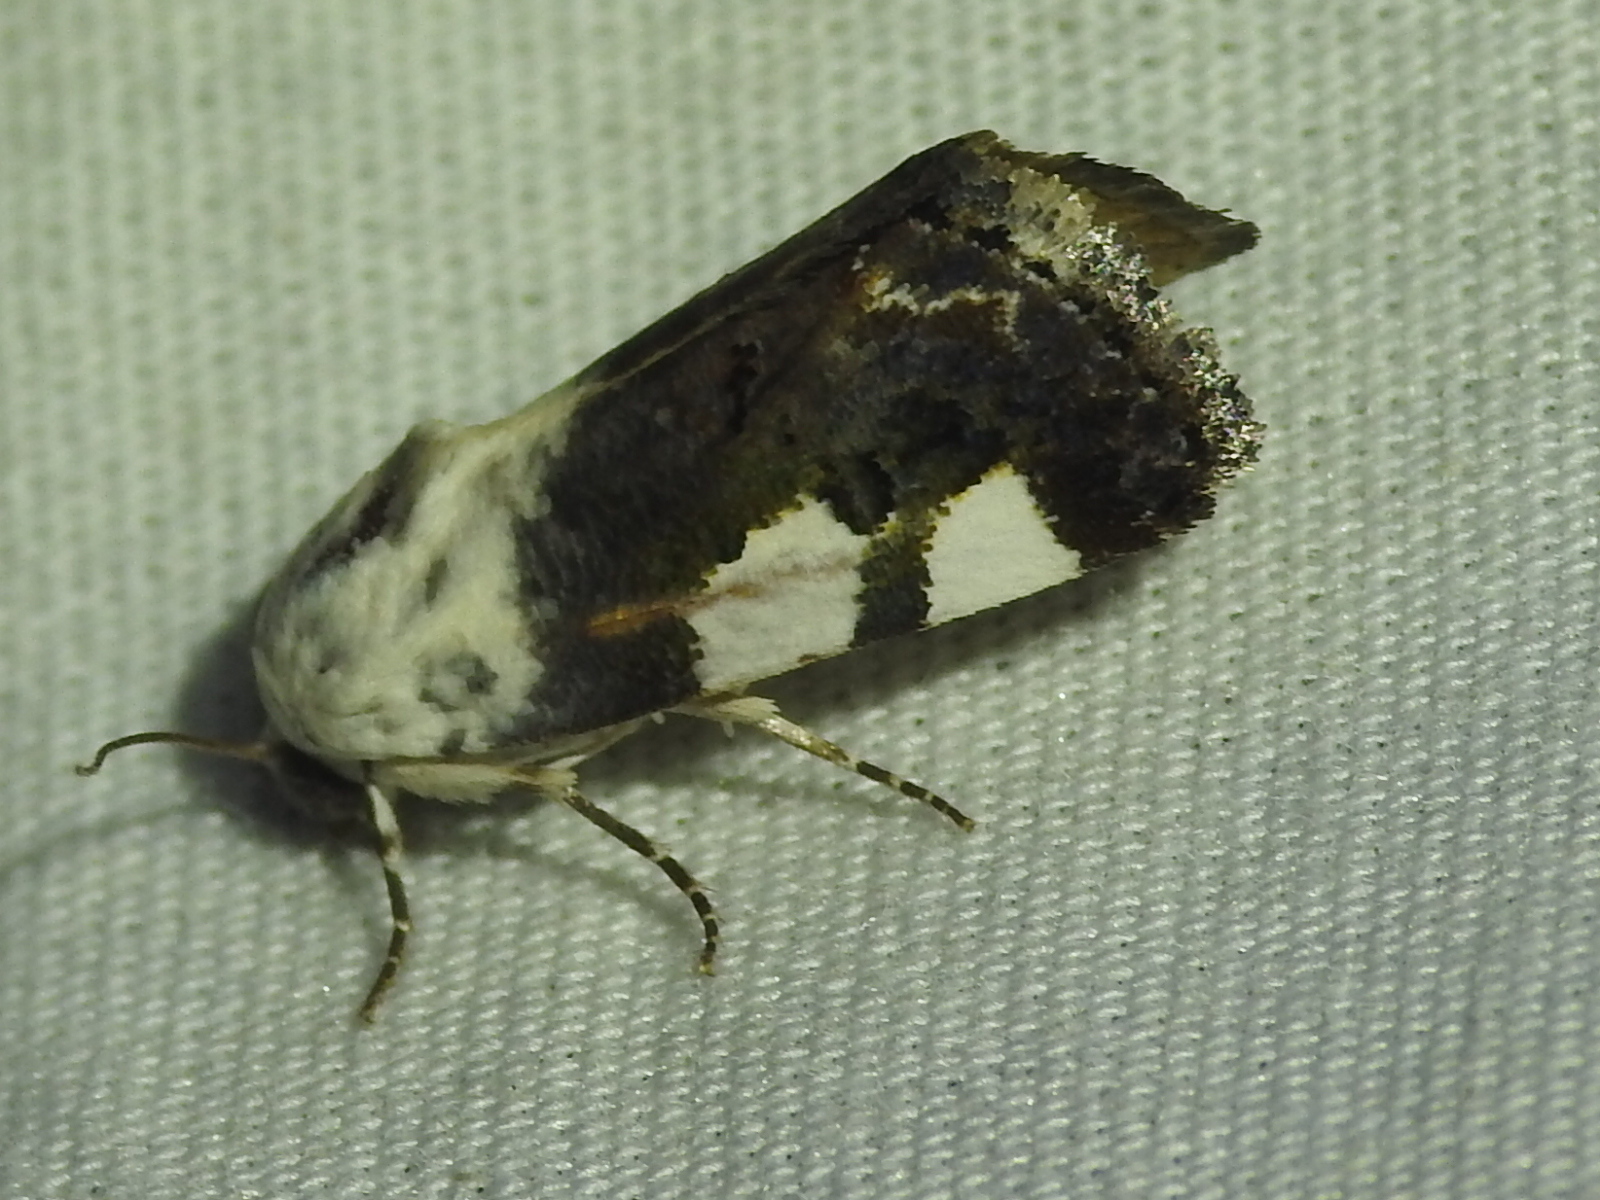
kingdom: Animalia
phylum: Arthropoda
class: Insecta
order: Lepidoptera
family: Noctuidae
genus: Acontia
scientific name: Acontia quadriplaga
